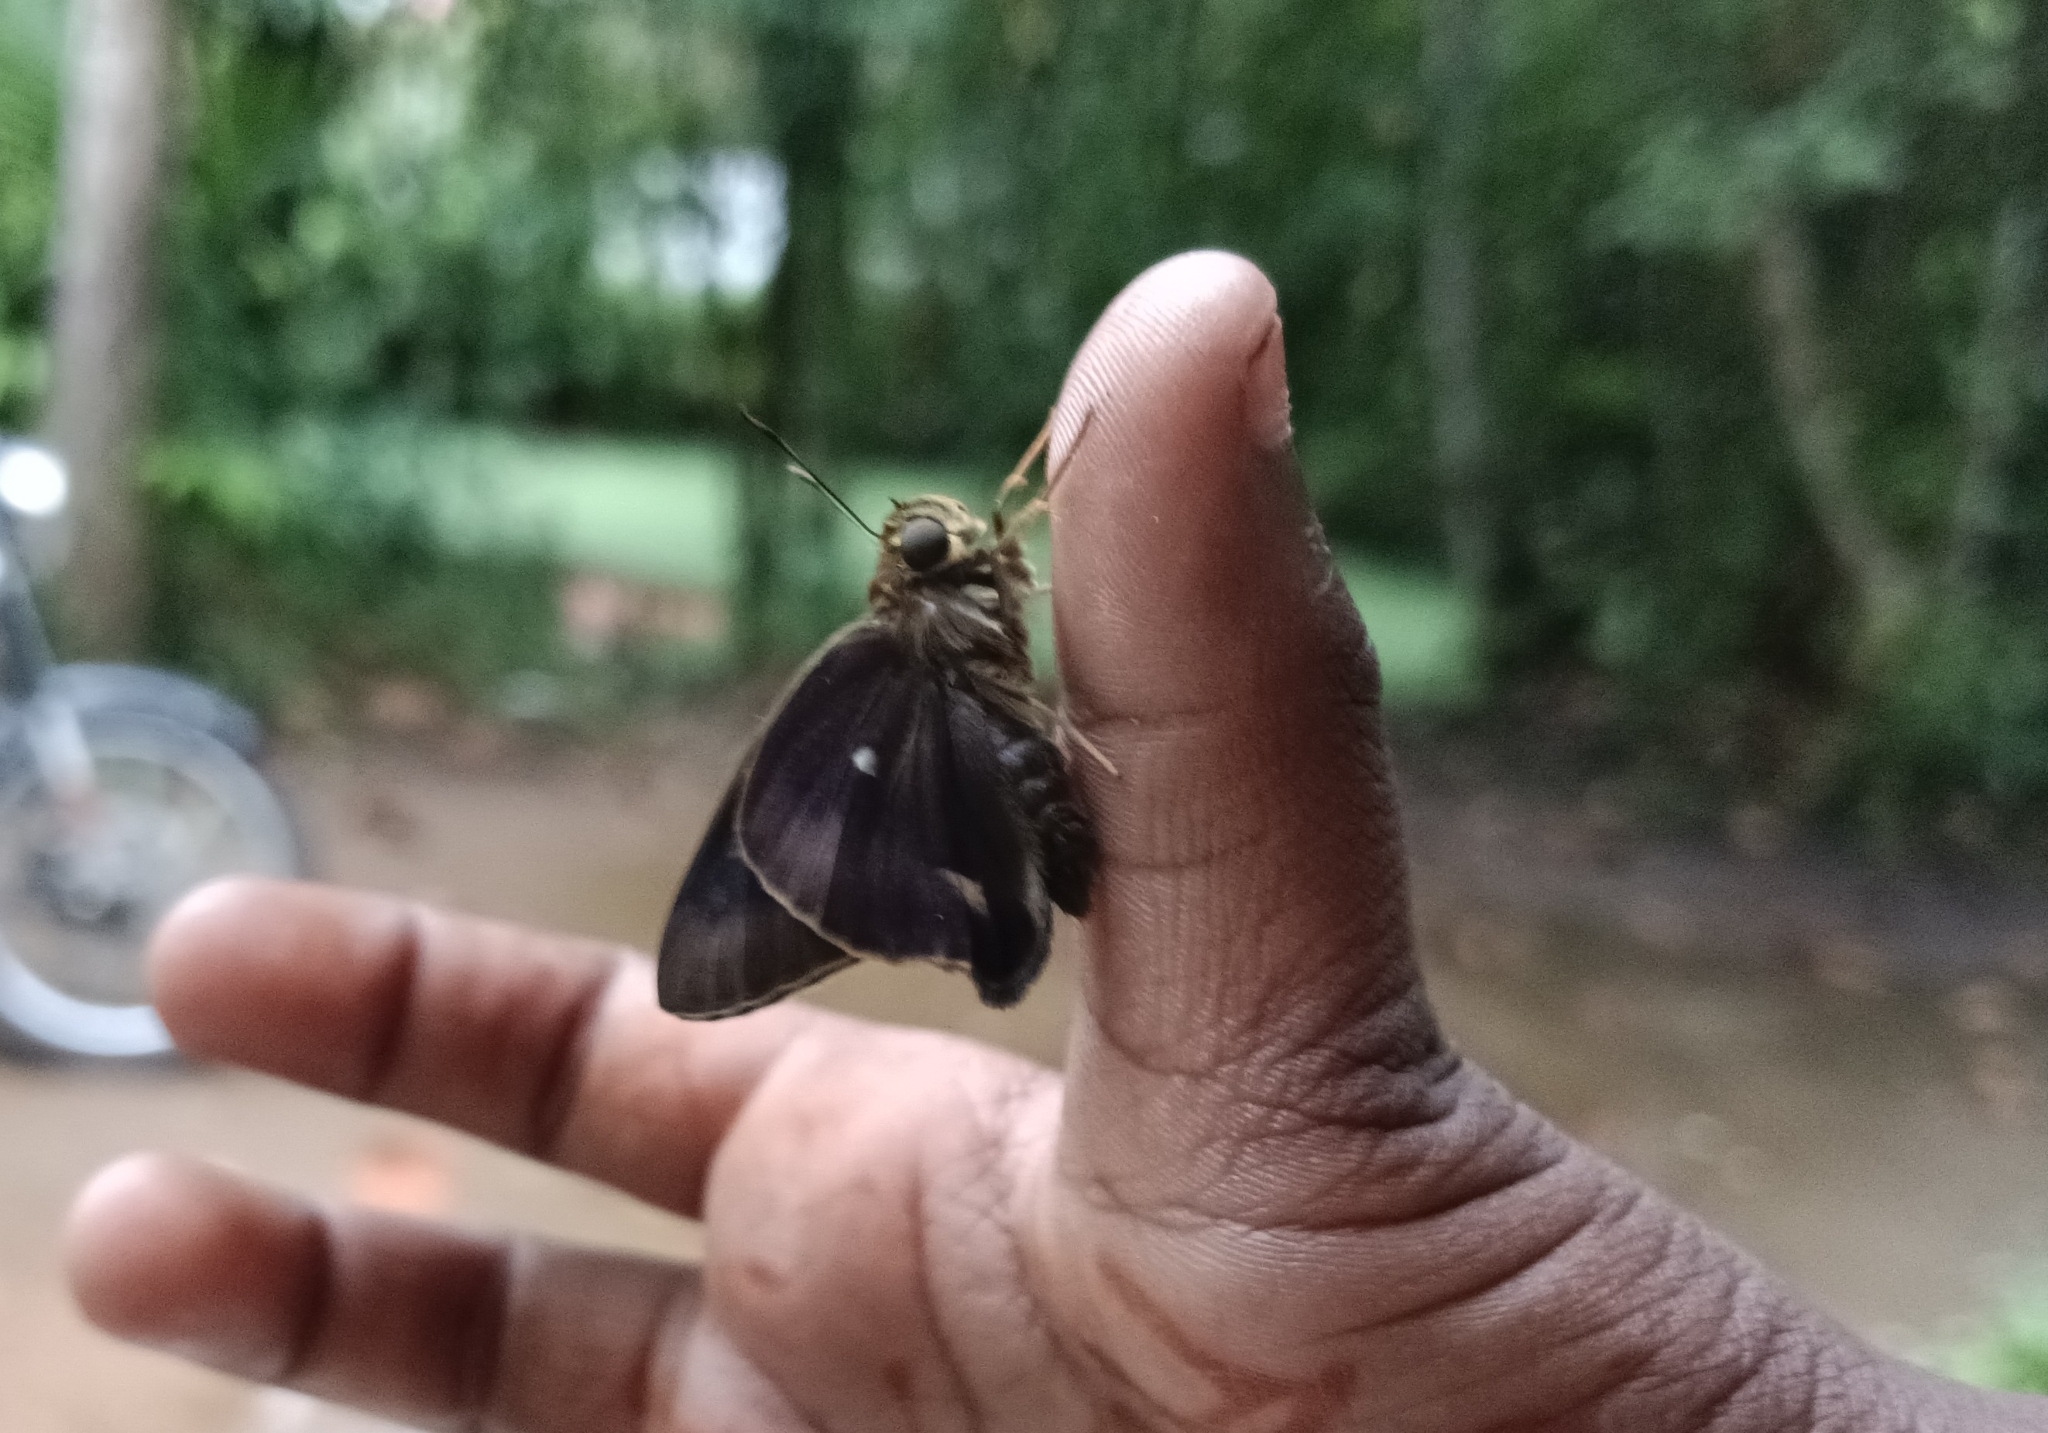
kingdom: Animalia
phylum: Arthropoda
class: Insecta
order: Lepidoptera
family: Hesperiidae
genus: Hasora
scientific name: Hasora badra
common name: Common awl
